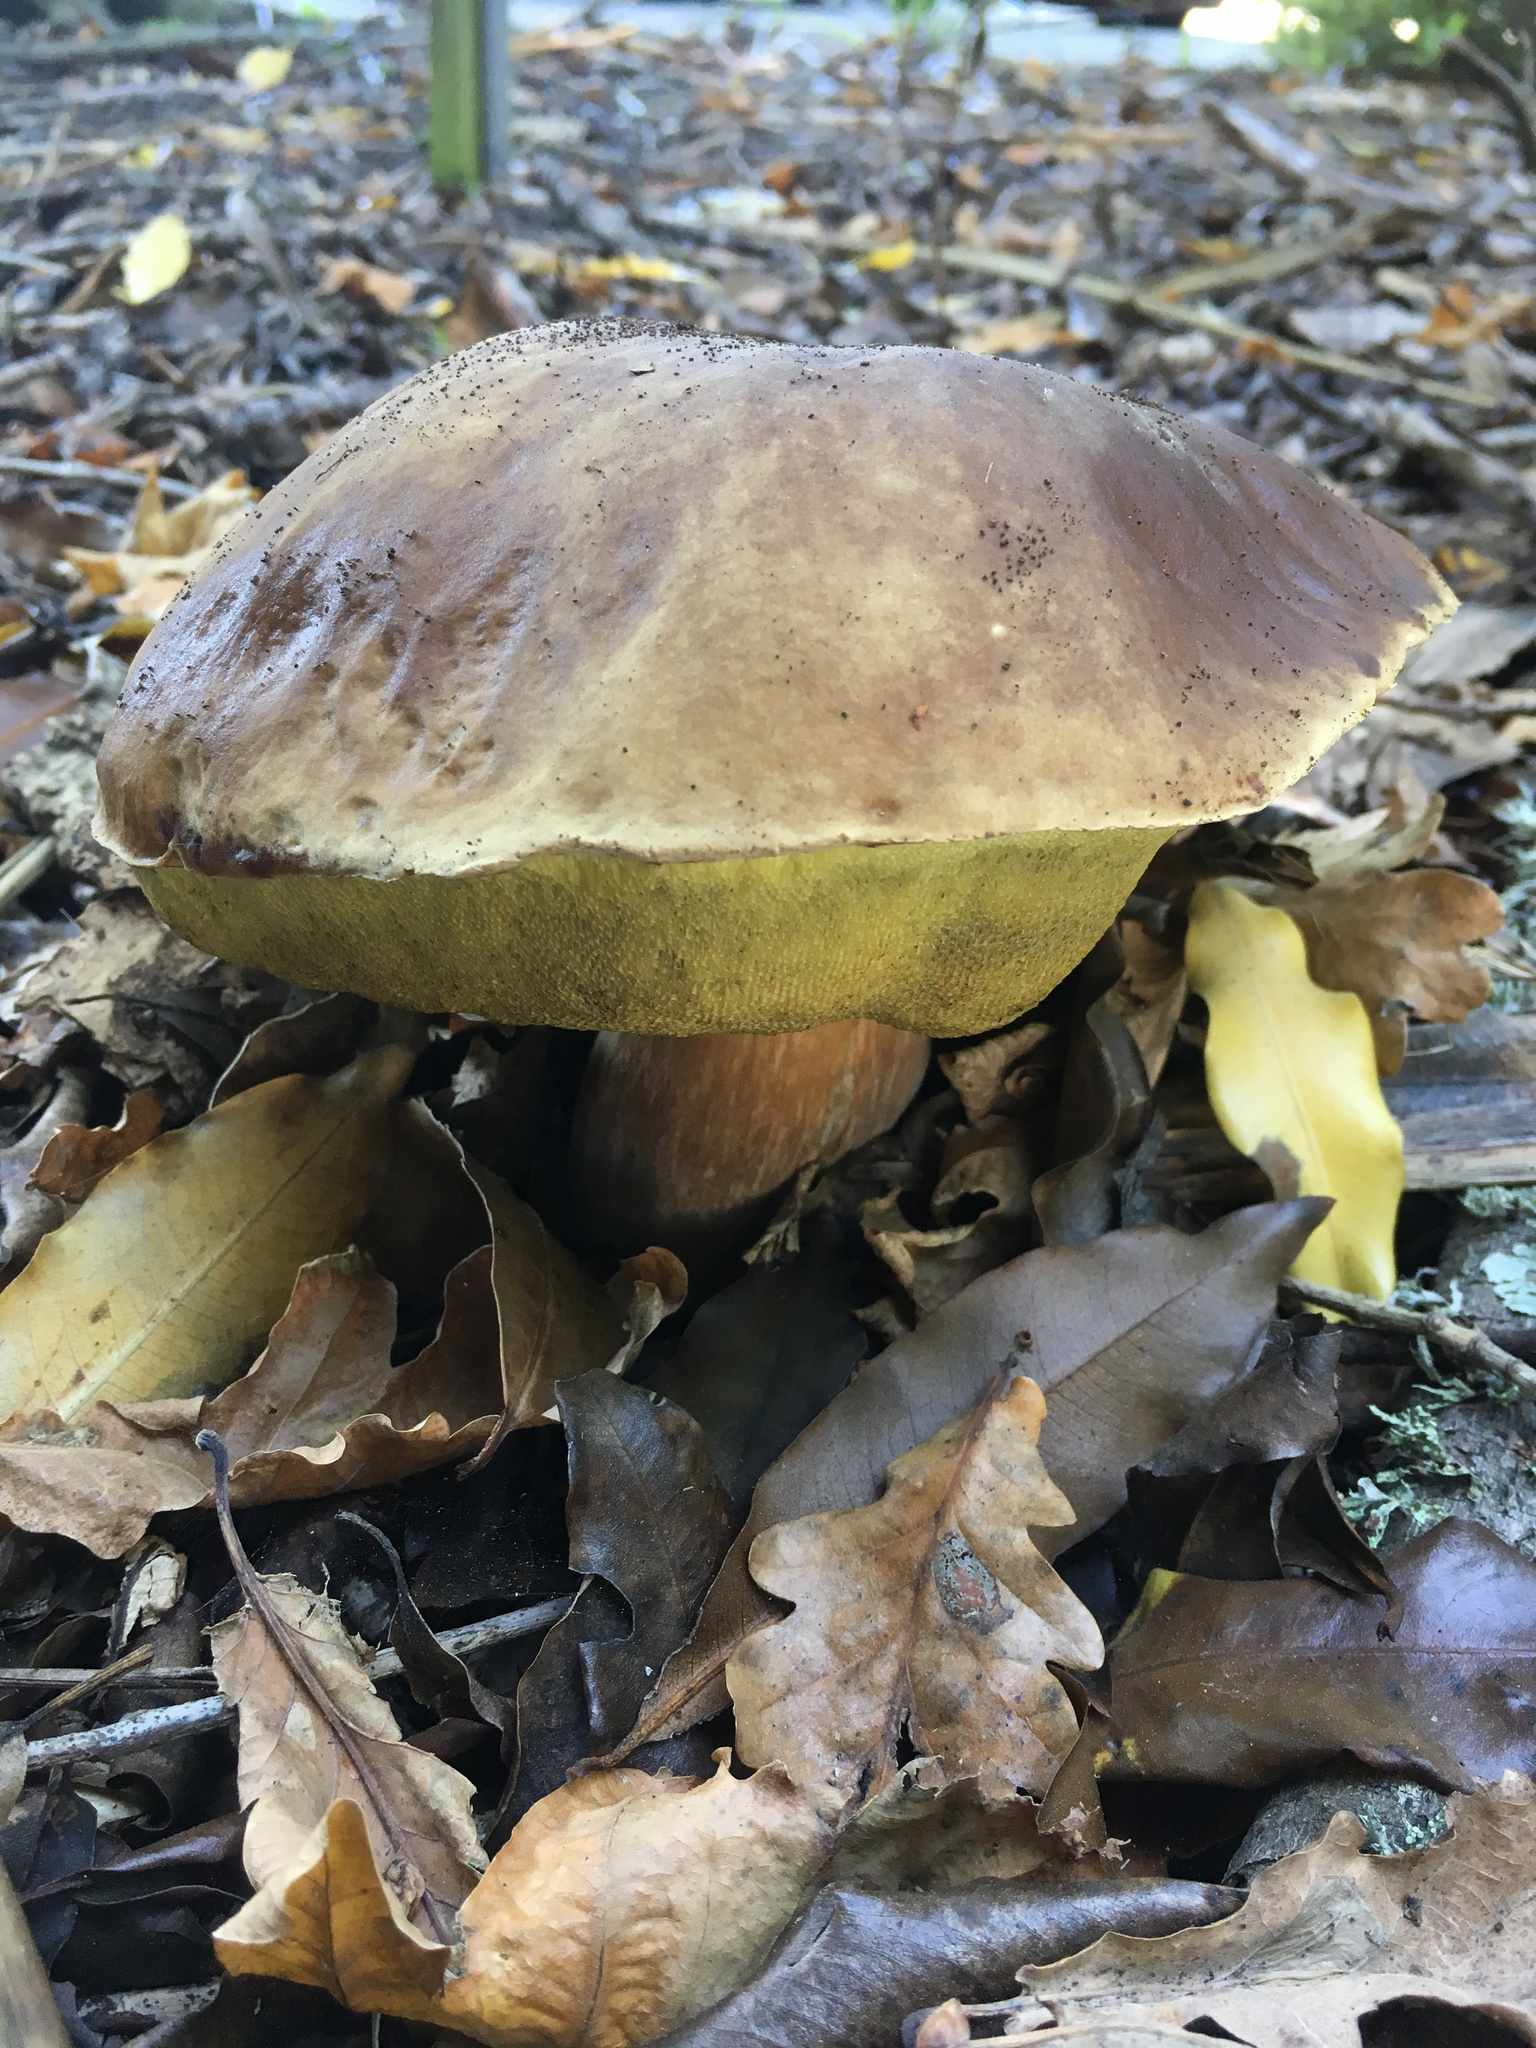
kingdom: Fungi
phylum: Basidiomycota
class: Agaricomycetes
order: Boletales
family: Boletaceae
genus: Boletus
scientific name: Boletus edulis
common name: Cep
